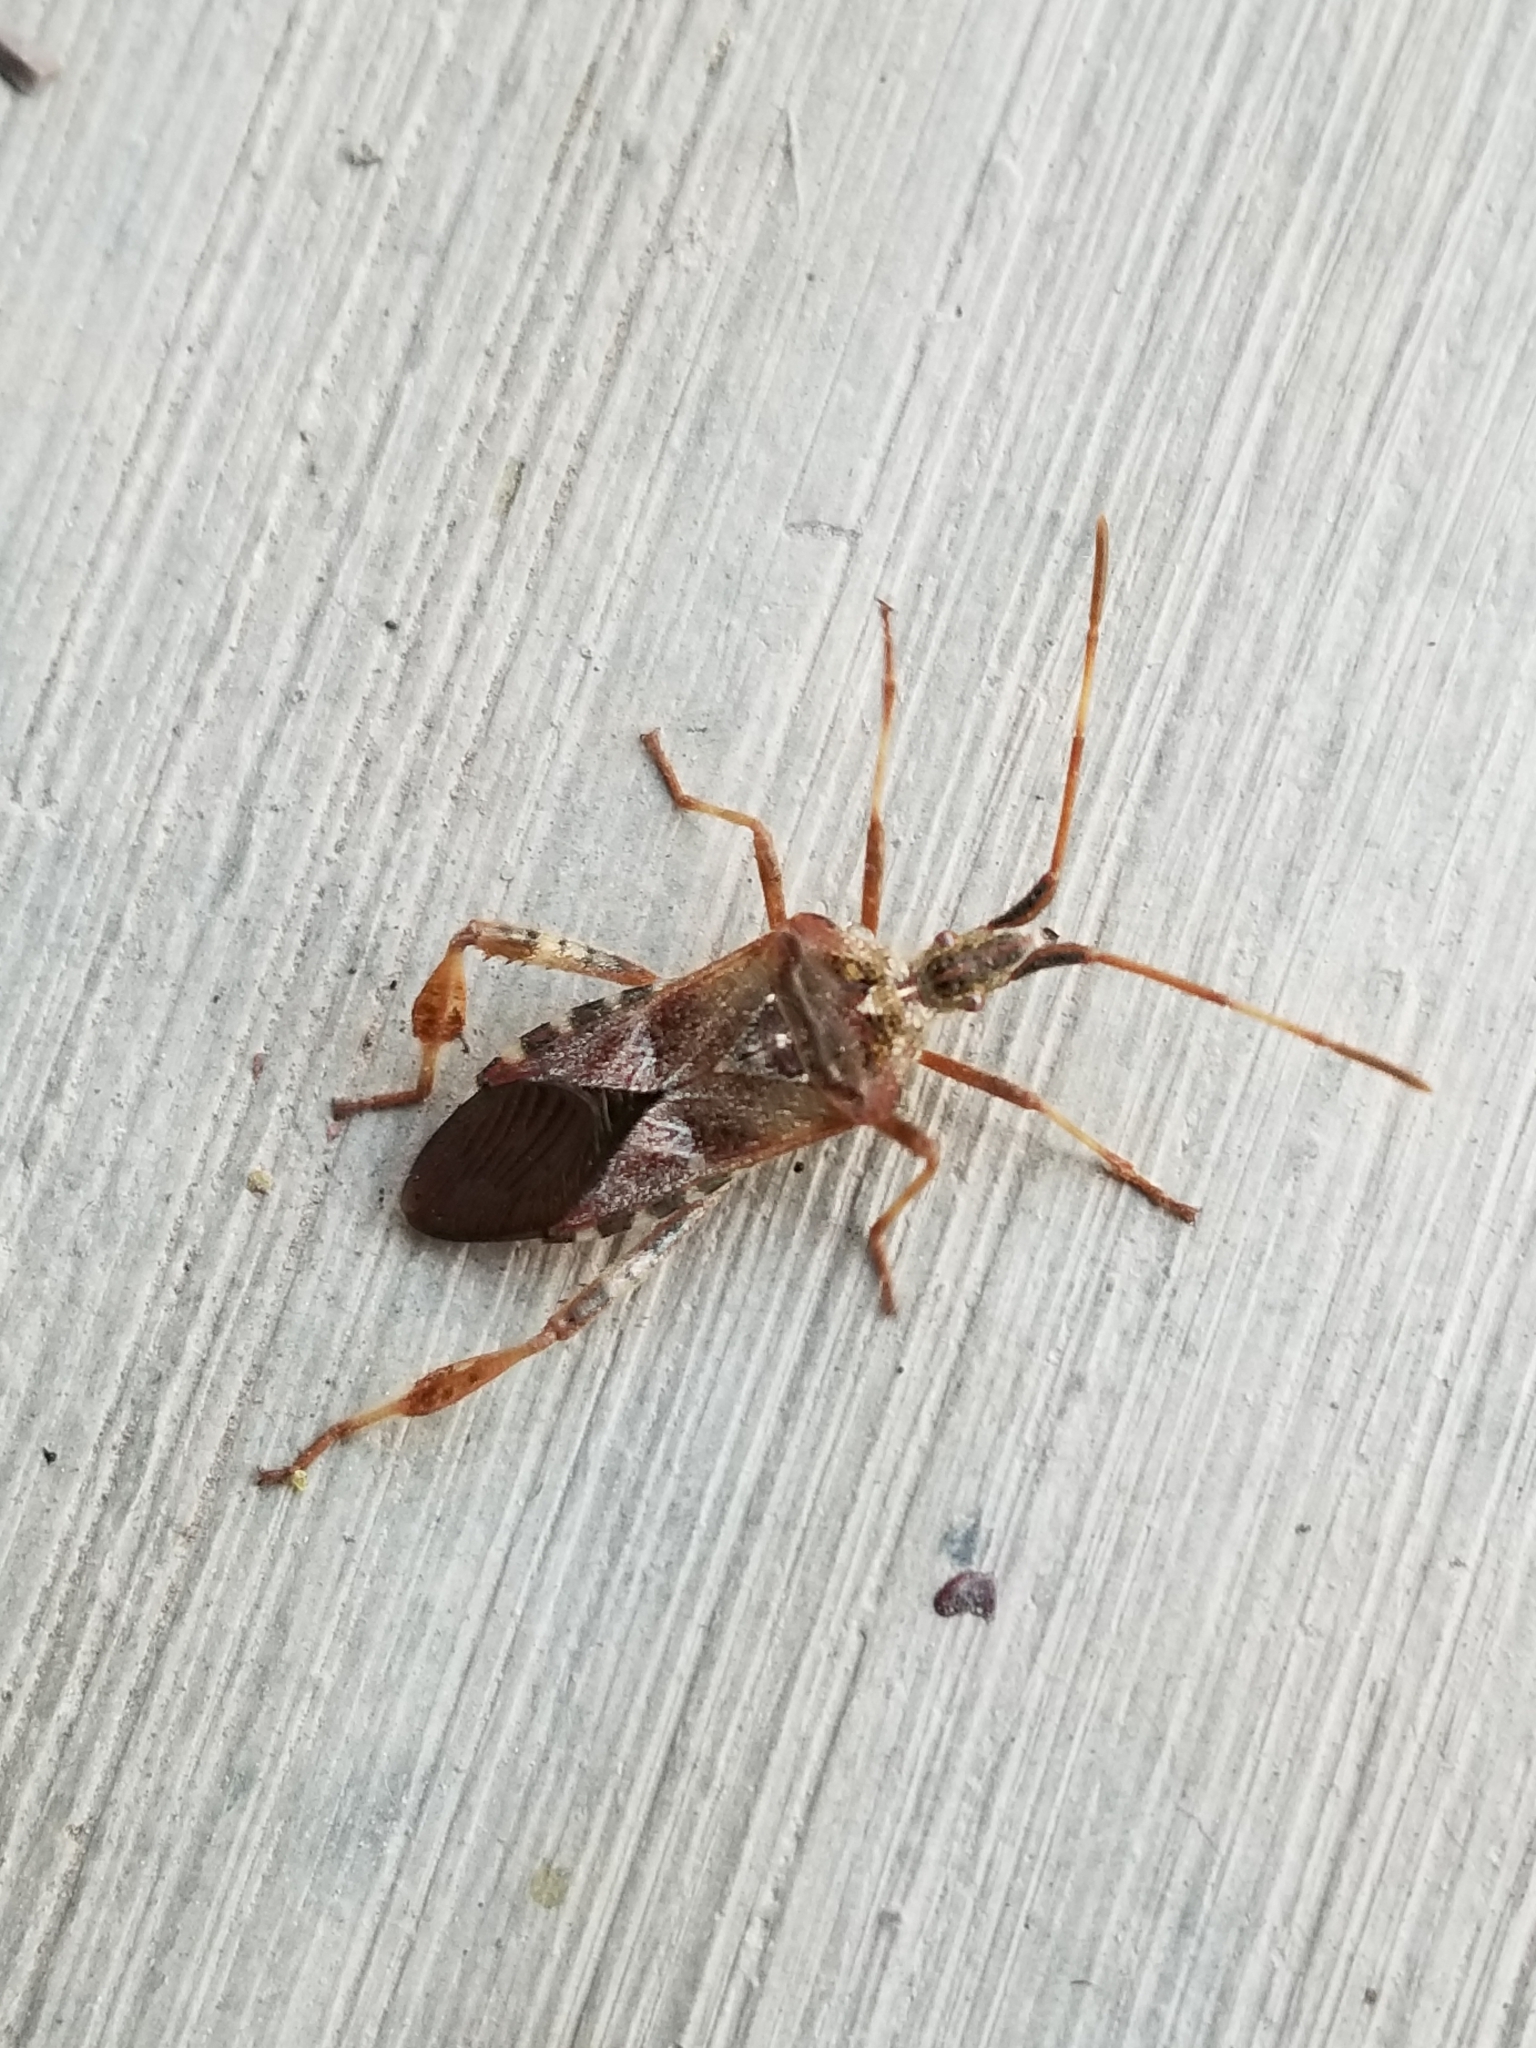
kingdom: Animalia
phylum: Arthropoda
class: Insecta
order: Hemiptera
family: Coreidae
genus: Leptoglossus
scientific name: Leptoglossus occidentalis
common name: Western conifer-seed bug
